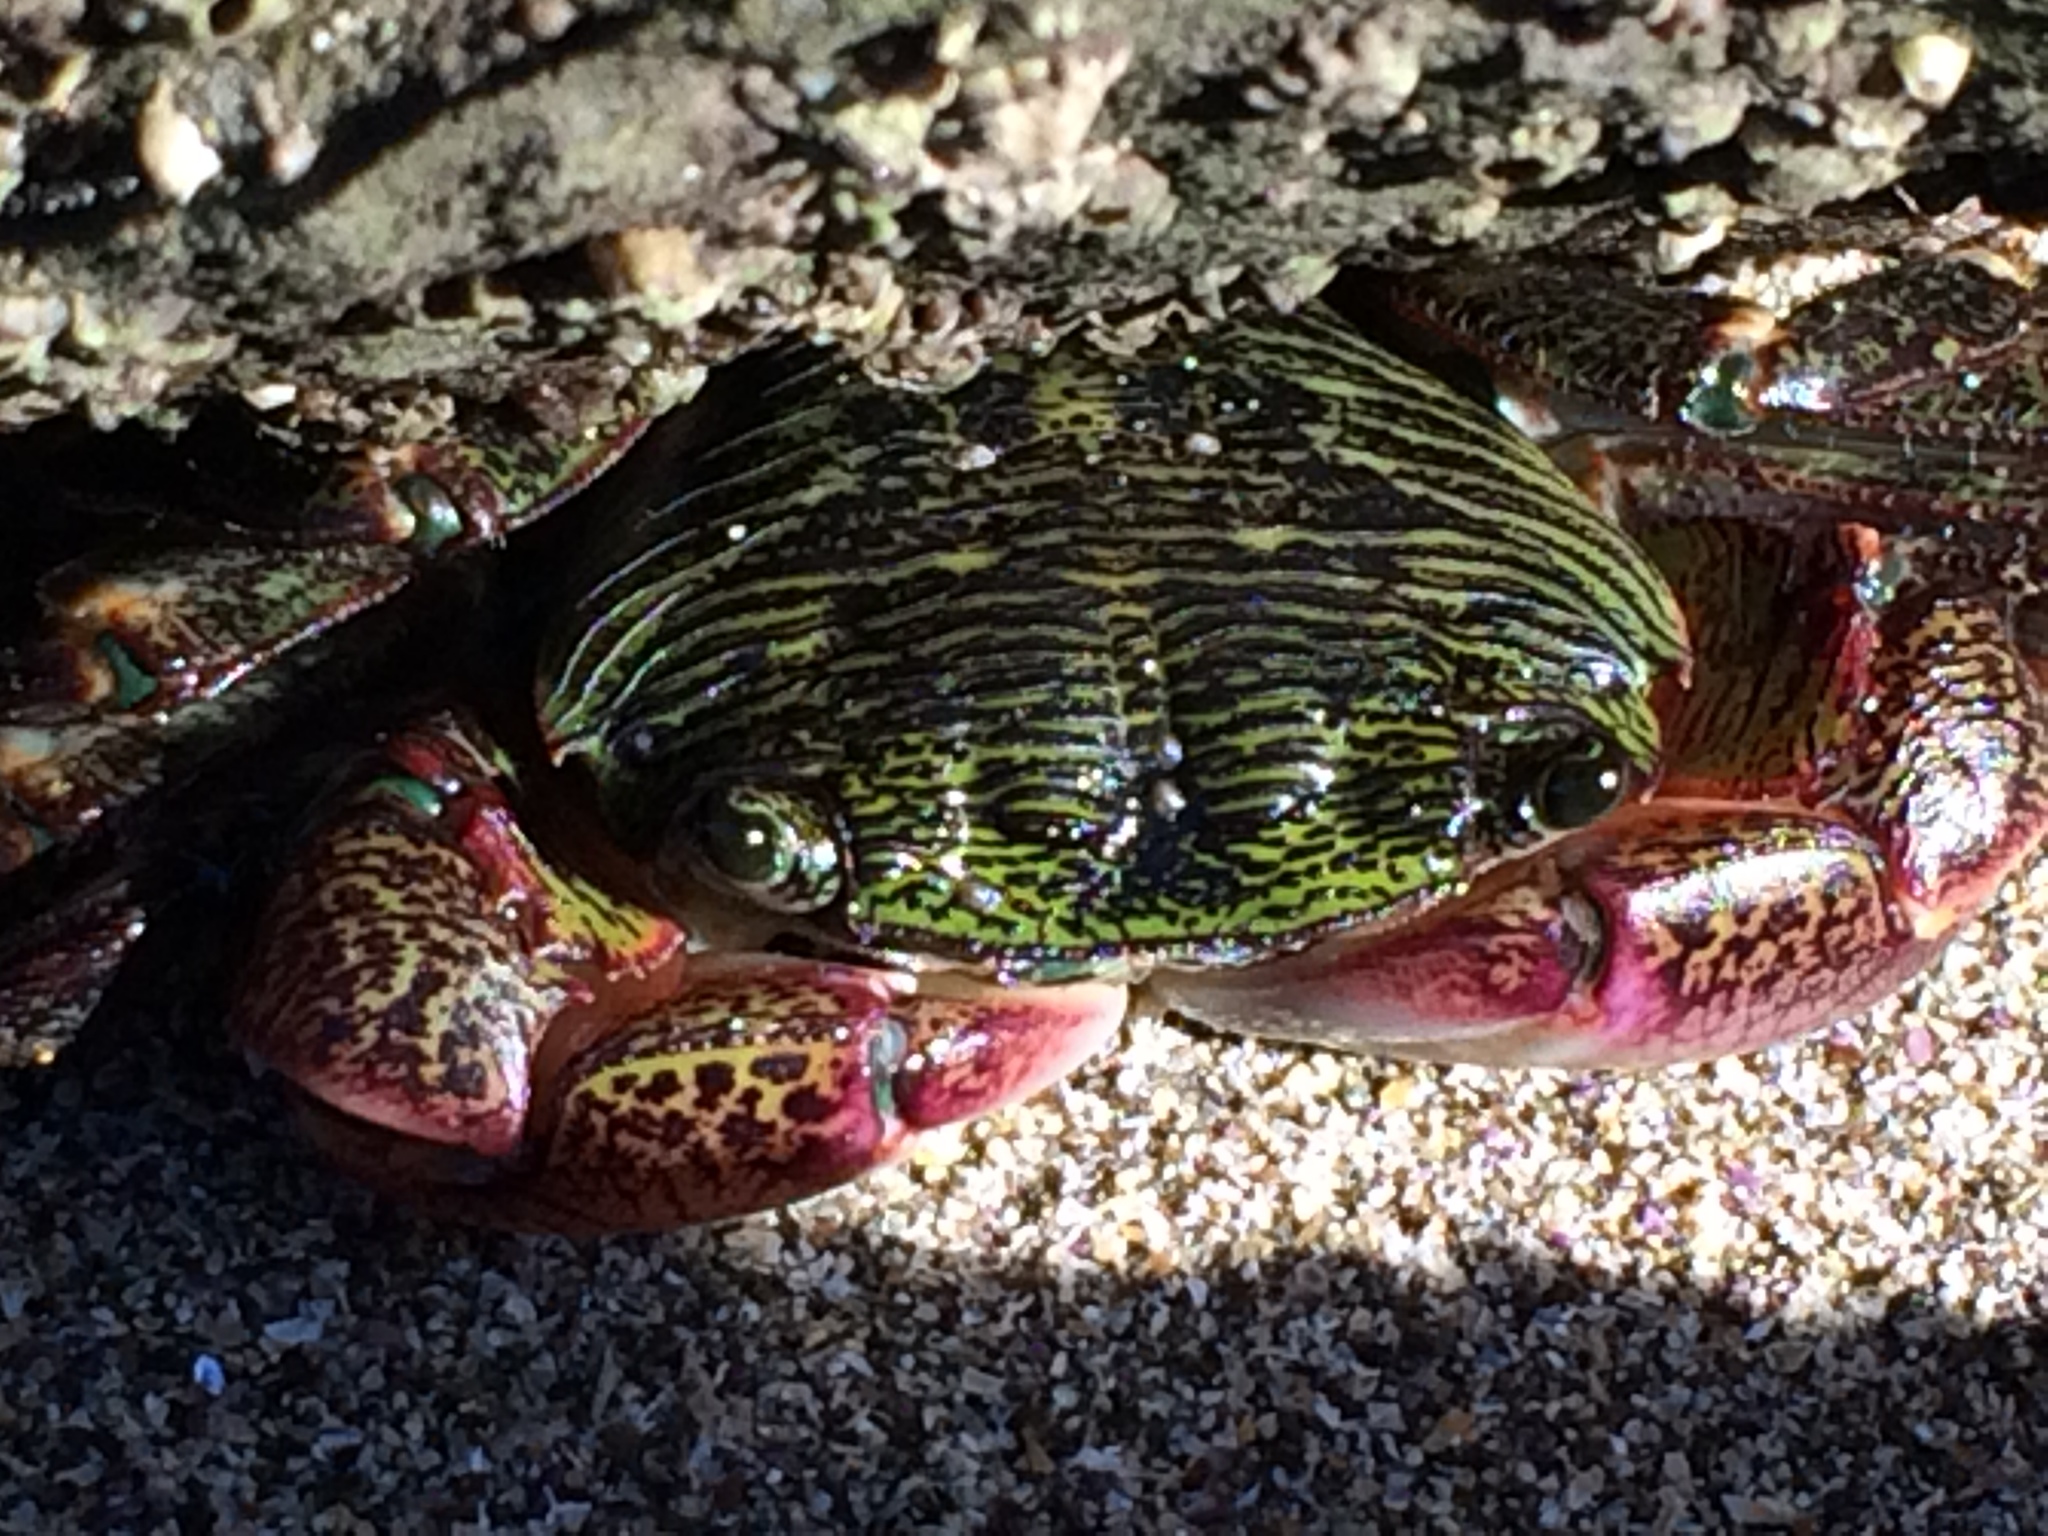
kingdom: Animalia
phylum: Arthropoda
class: Malacostraca
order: Decapoda
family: Grapsidae
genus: Pachygrapsus
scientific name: Pachygrapsus crassipes
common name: Striped shore crab
